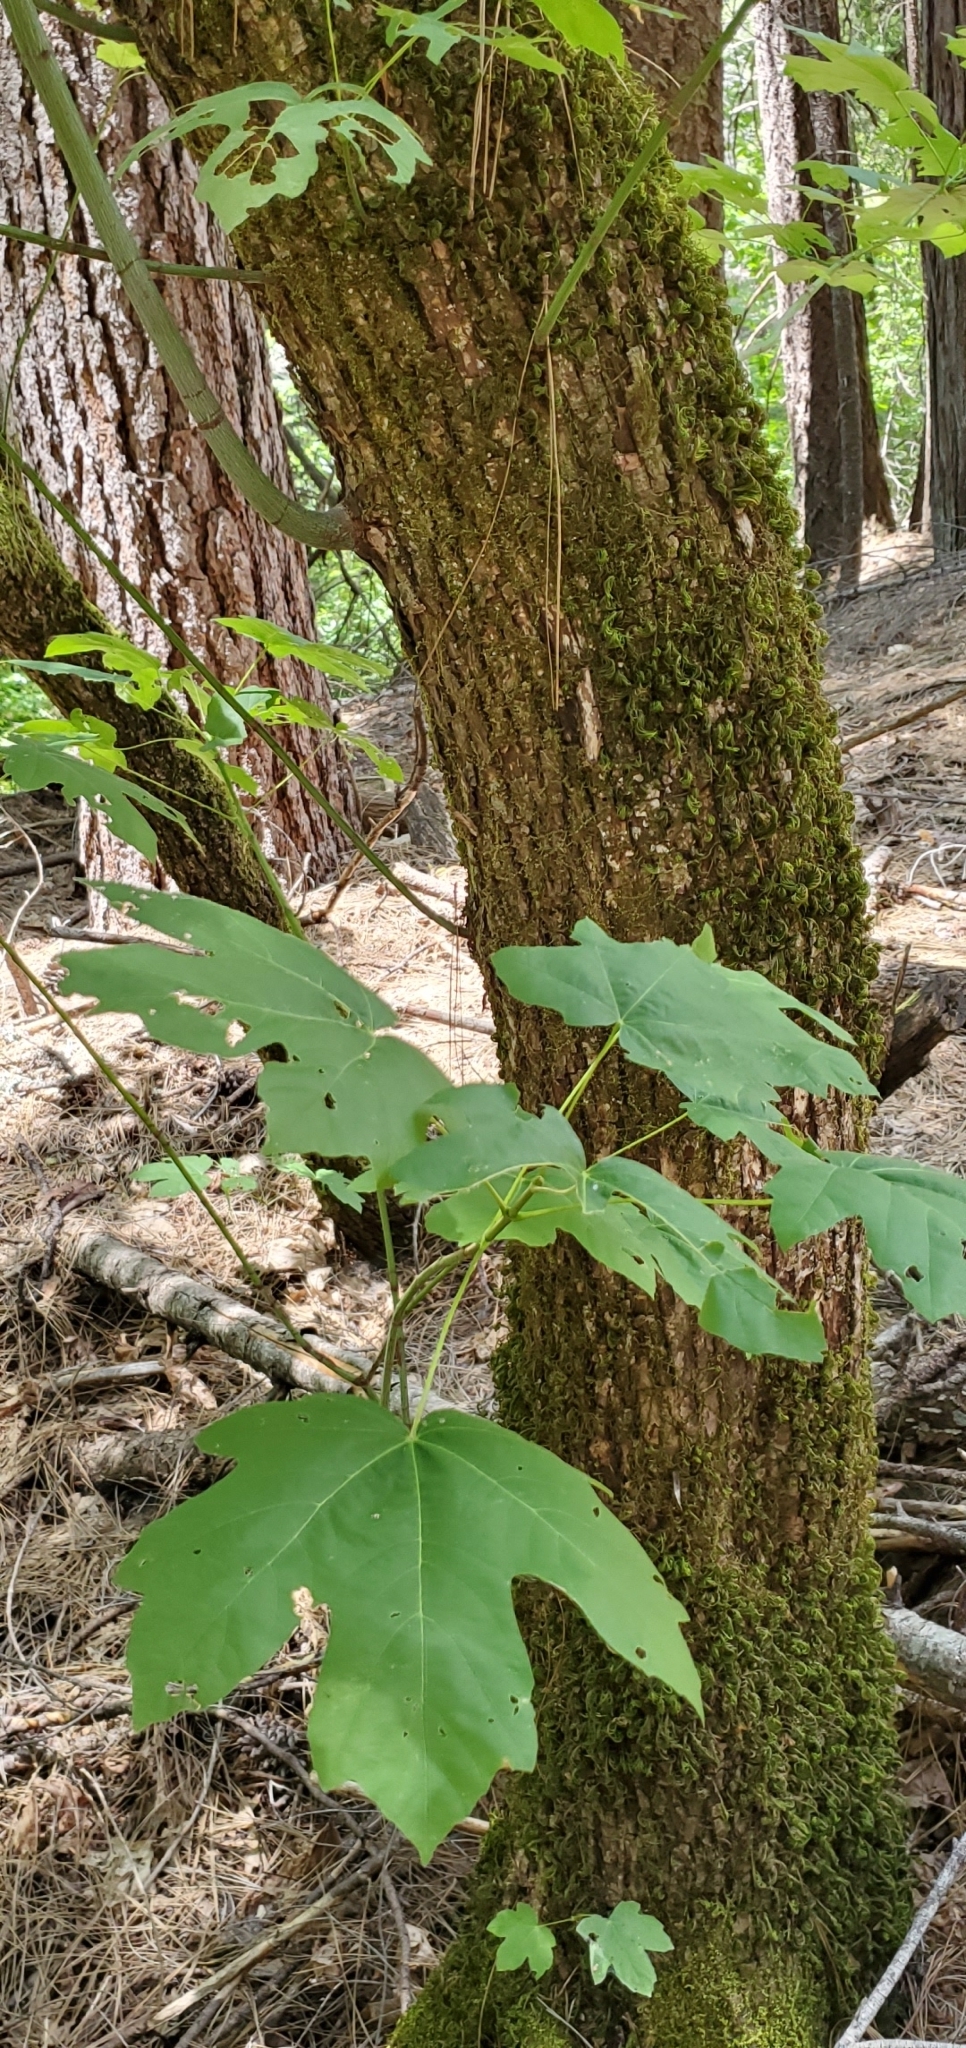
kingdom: Plantae
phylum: Tracheophyta
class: Magnoliopsida
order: Sapindales
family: Sapindaceae
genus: Acer
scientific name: Acer macrophyllum
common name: Oregon maple
